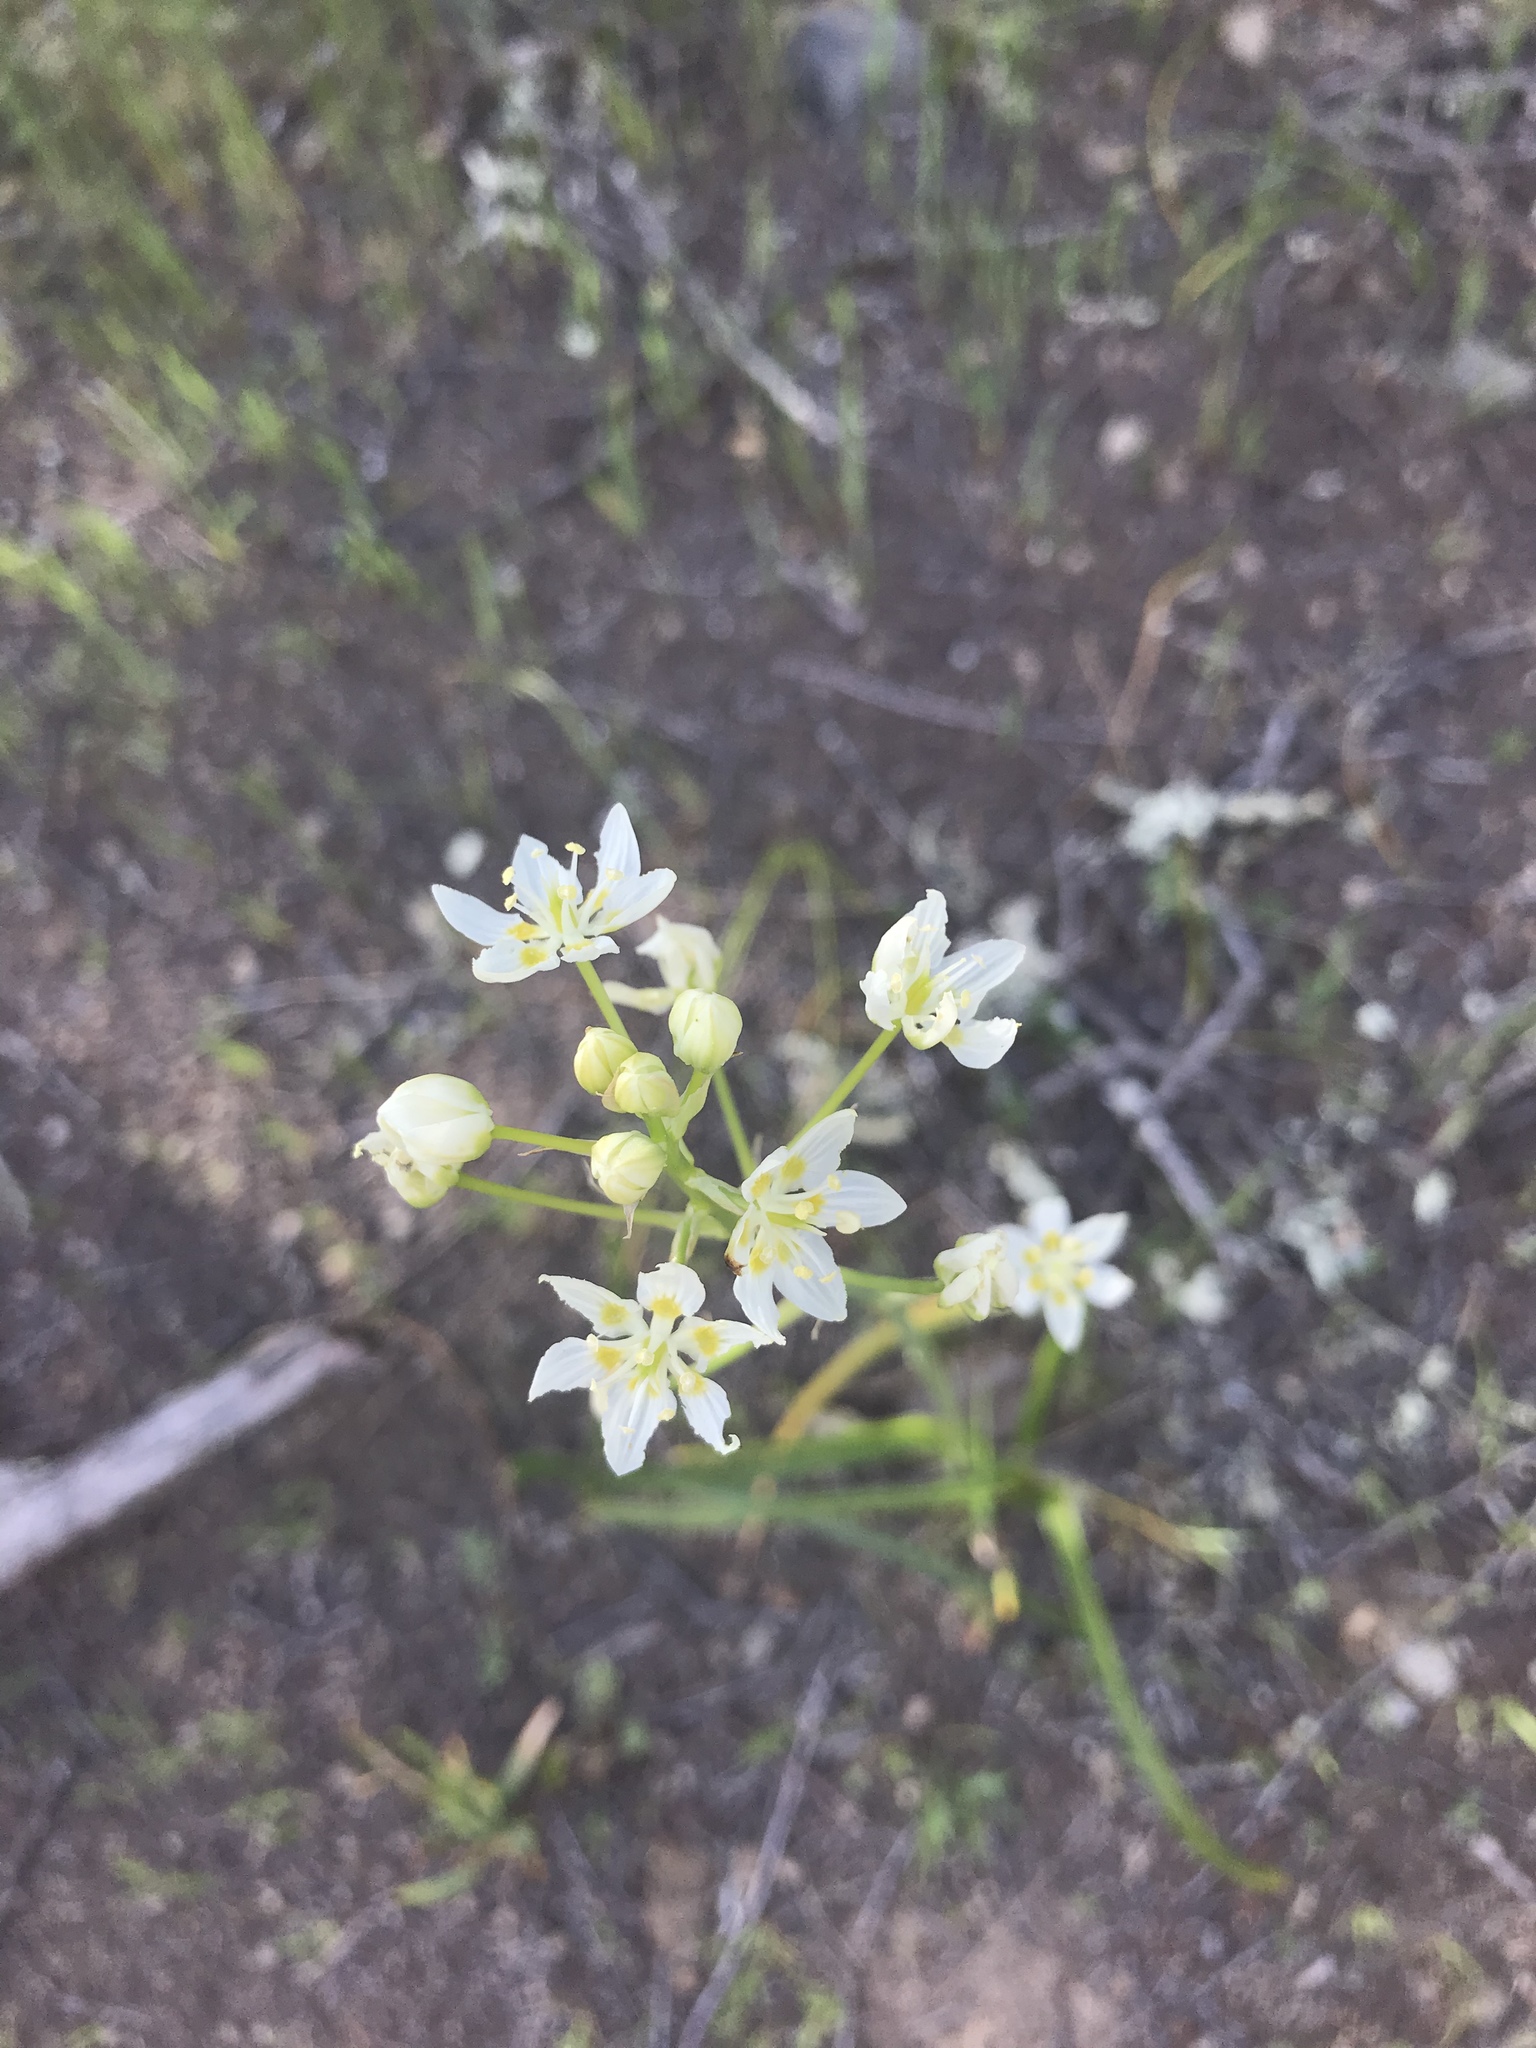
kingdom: Plantae
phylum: Tracheophyta
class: Liliopsida
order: Liliales
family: Melanthiaceae
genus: Toxicoscordion
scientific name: Toxicoscordion fremontii
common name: Fremont's death camas
